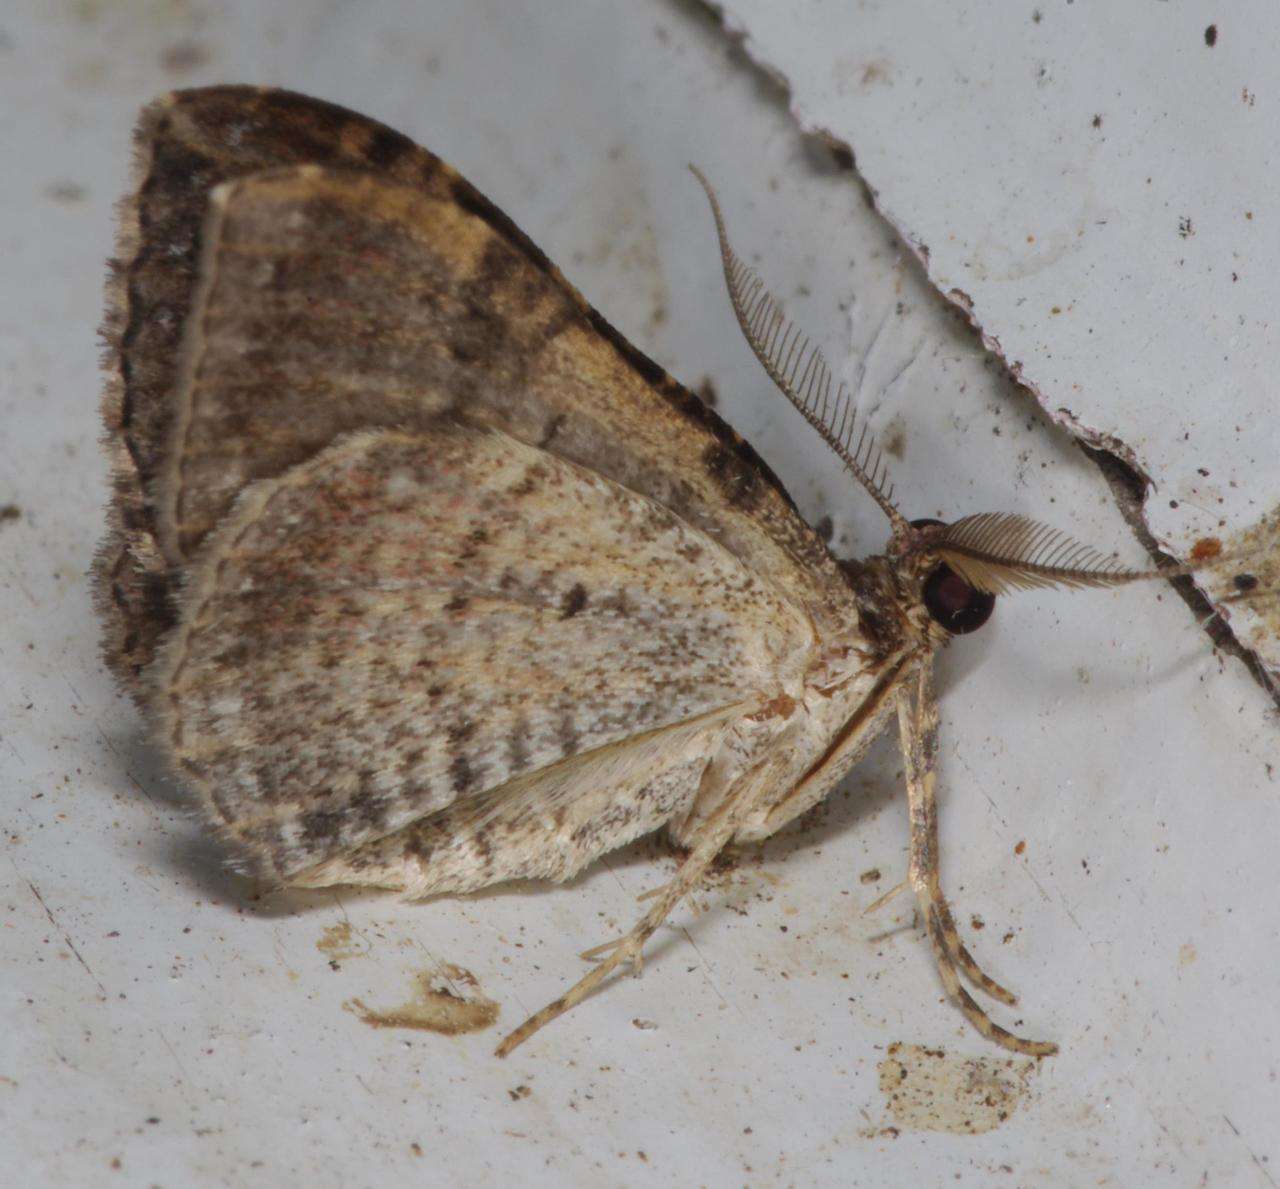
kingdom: Animalia
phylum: Arthropoda
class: Insecta
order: Lepidoptera
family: Geometridae
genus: Epyaxa
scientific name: Epyaxa subidaria
